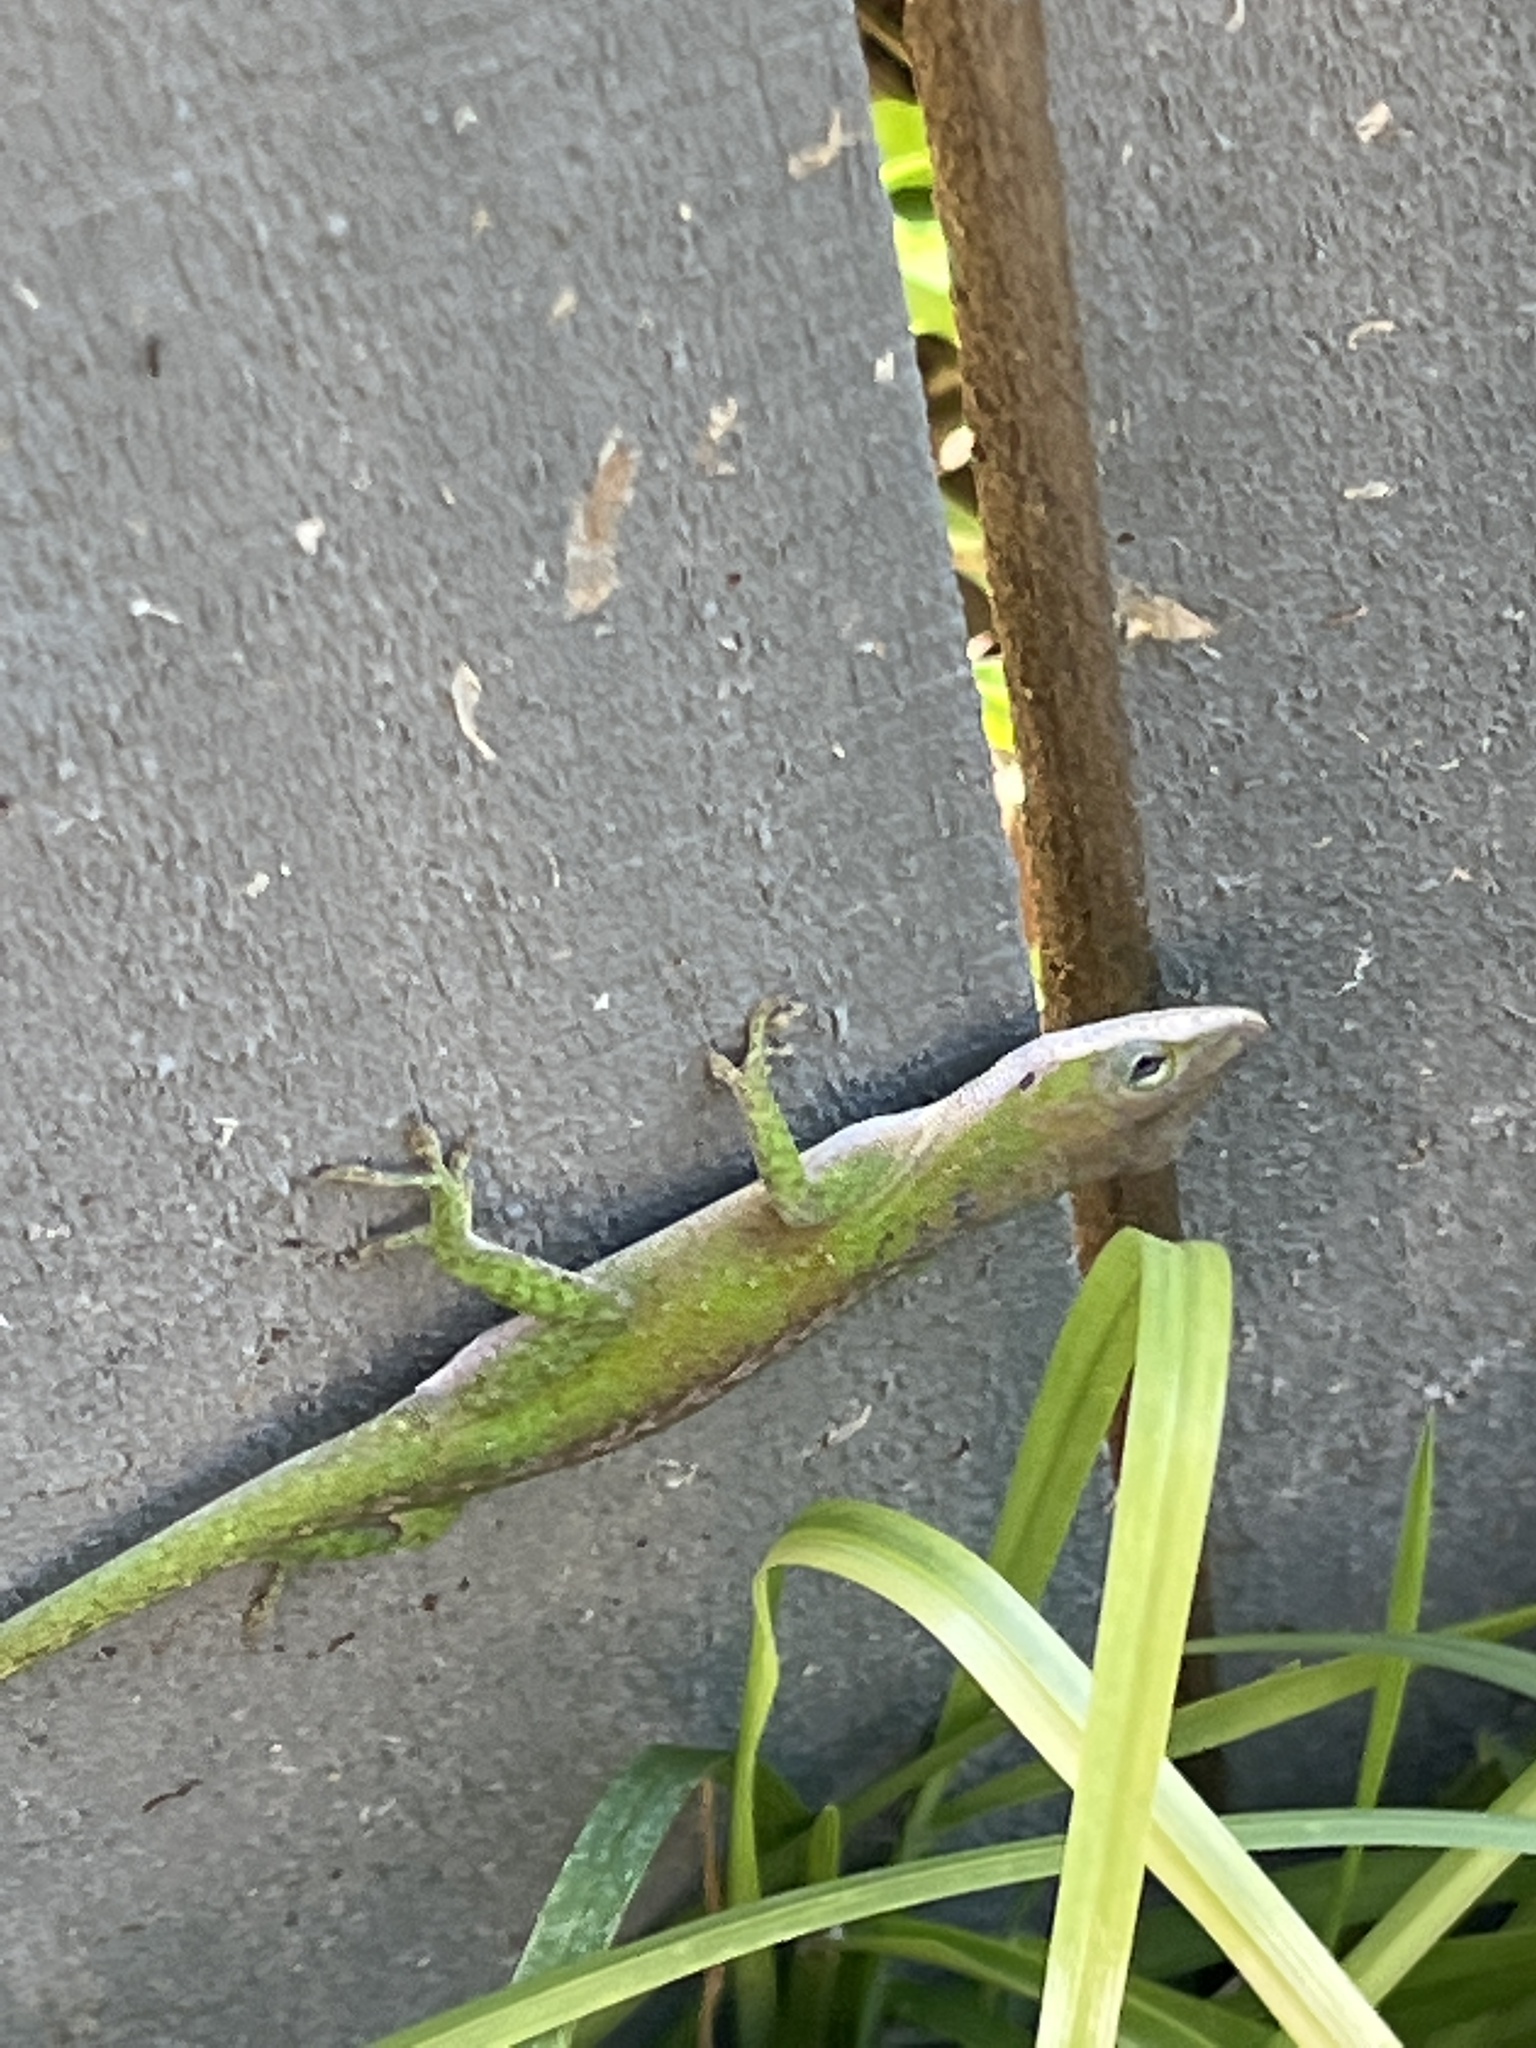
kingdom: Animalia
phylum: Chordata
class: Squamata
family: Dactyloidae
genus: Anolis
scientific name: Anolis carolinensis
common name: Green anole
